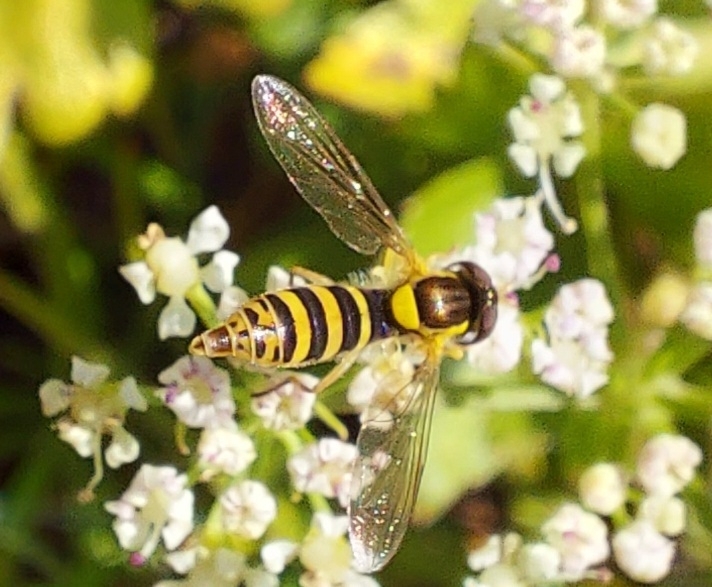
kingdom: Animalia
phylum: Arthropoda
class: Insecta
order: Diptera
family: Syrphidae
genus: Sphaerophoria
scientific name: Sphaerophoria
